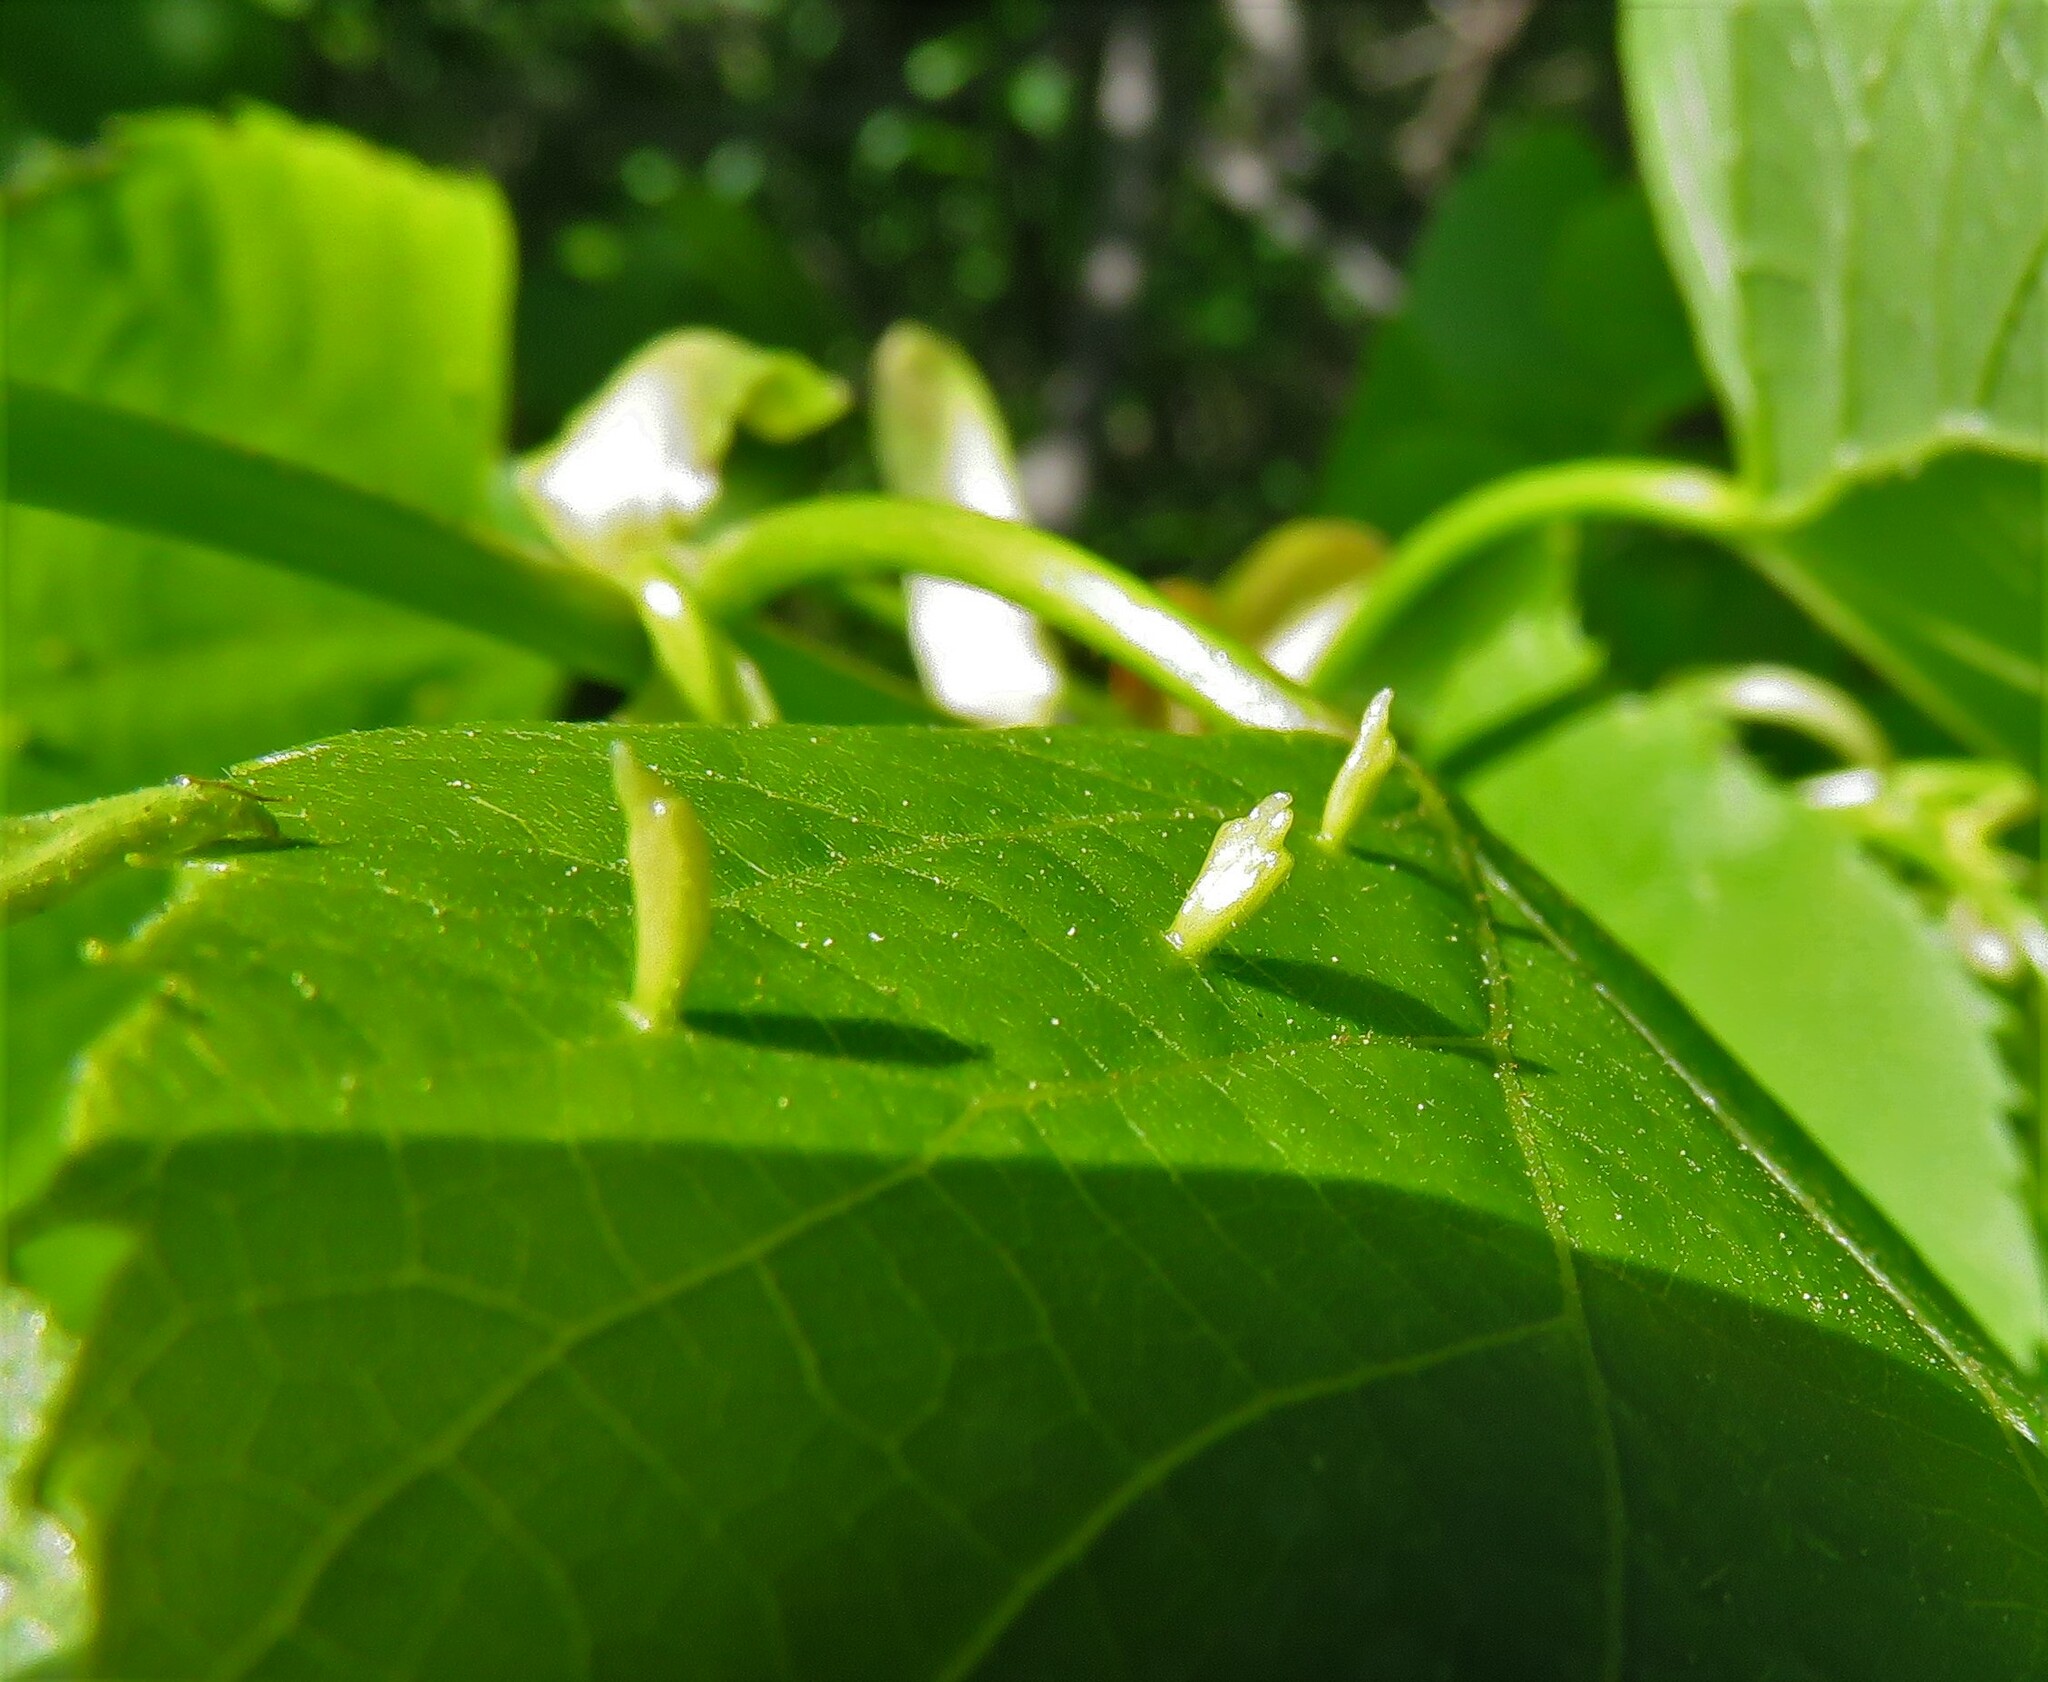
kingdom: Animalia
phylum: Arthropoda
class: Arachnida
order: Trombidiformes
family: Eriophyidae
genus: Eriophyes
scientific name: Eriophyes tiliae
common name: Red nail gall mite
